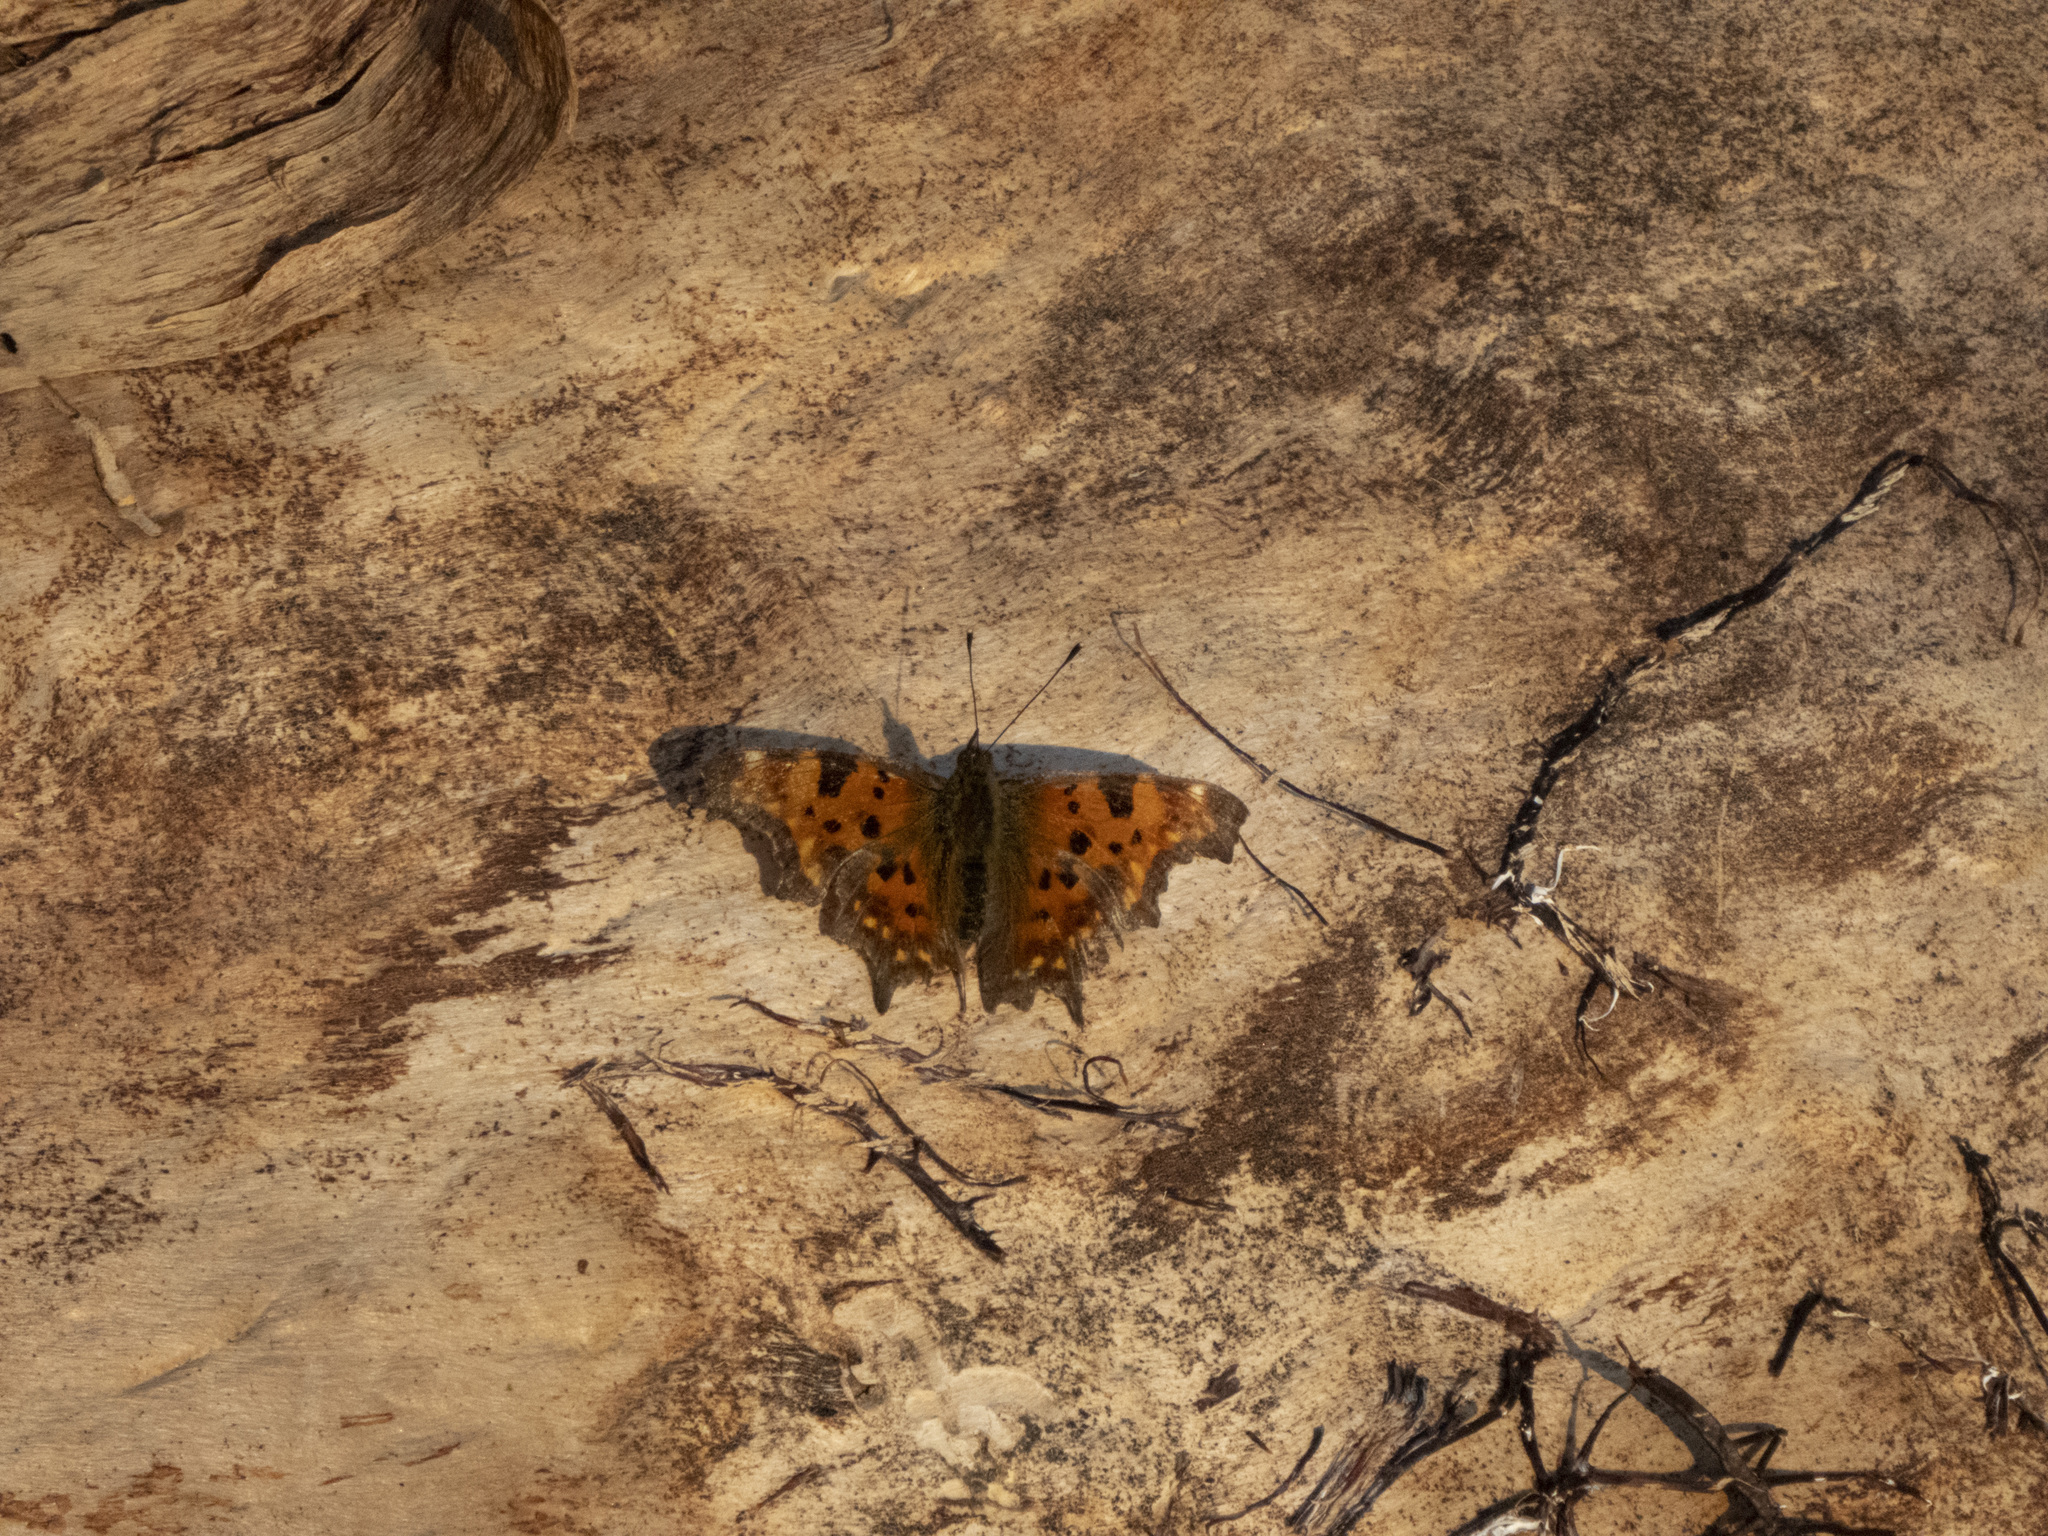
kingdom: Animalia
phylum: Arthropoda
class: Insecta
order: Lepidoptera
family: Nymphalidae
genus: Polygonia
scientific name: Polygonia c-album
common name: Comma
